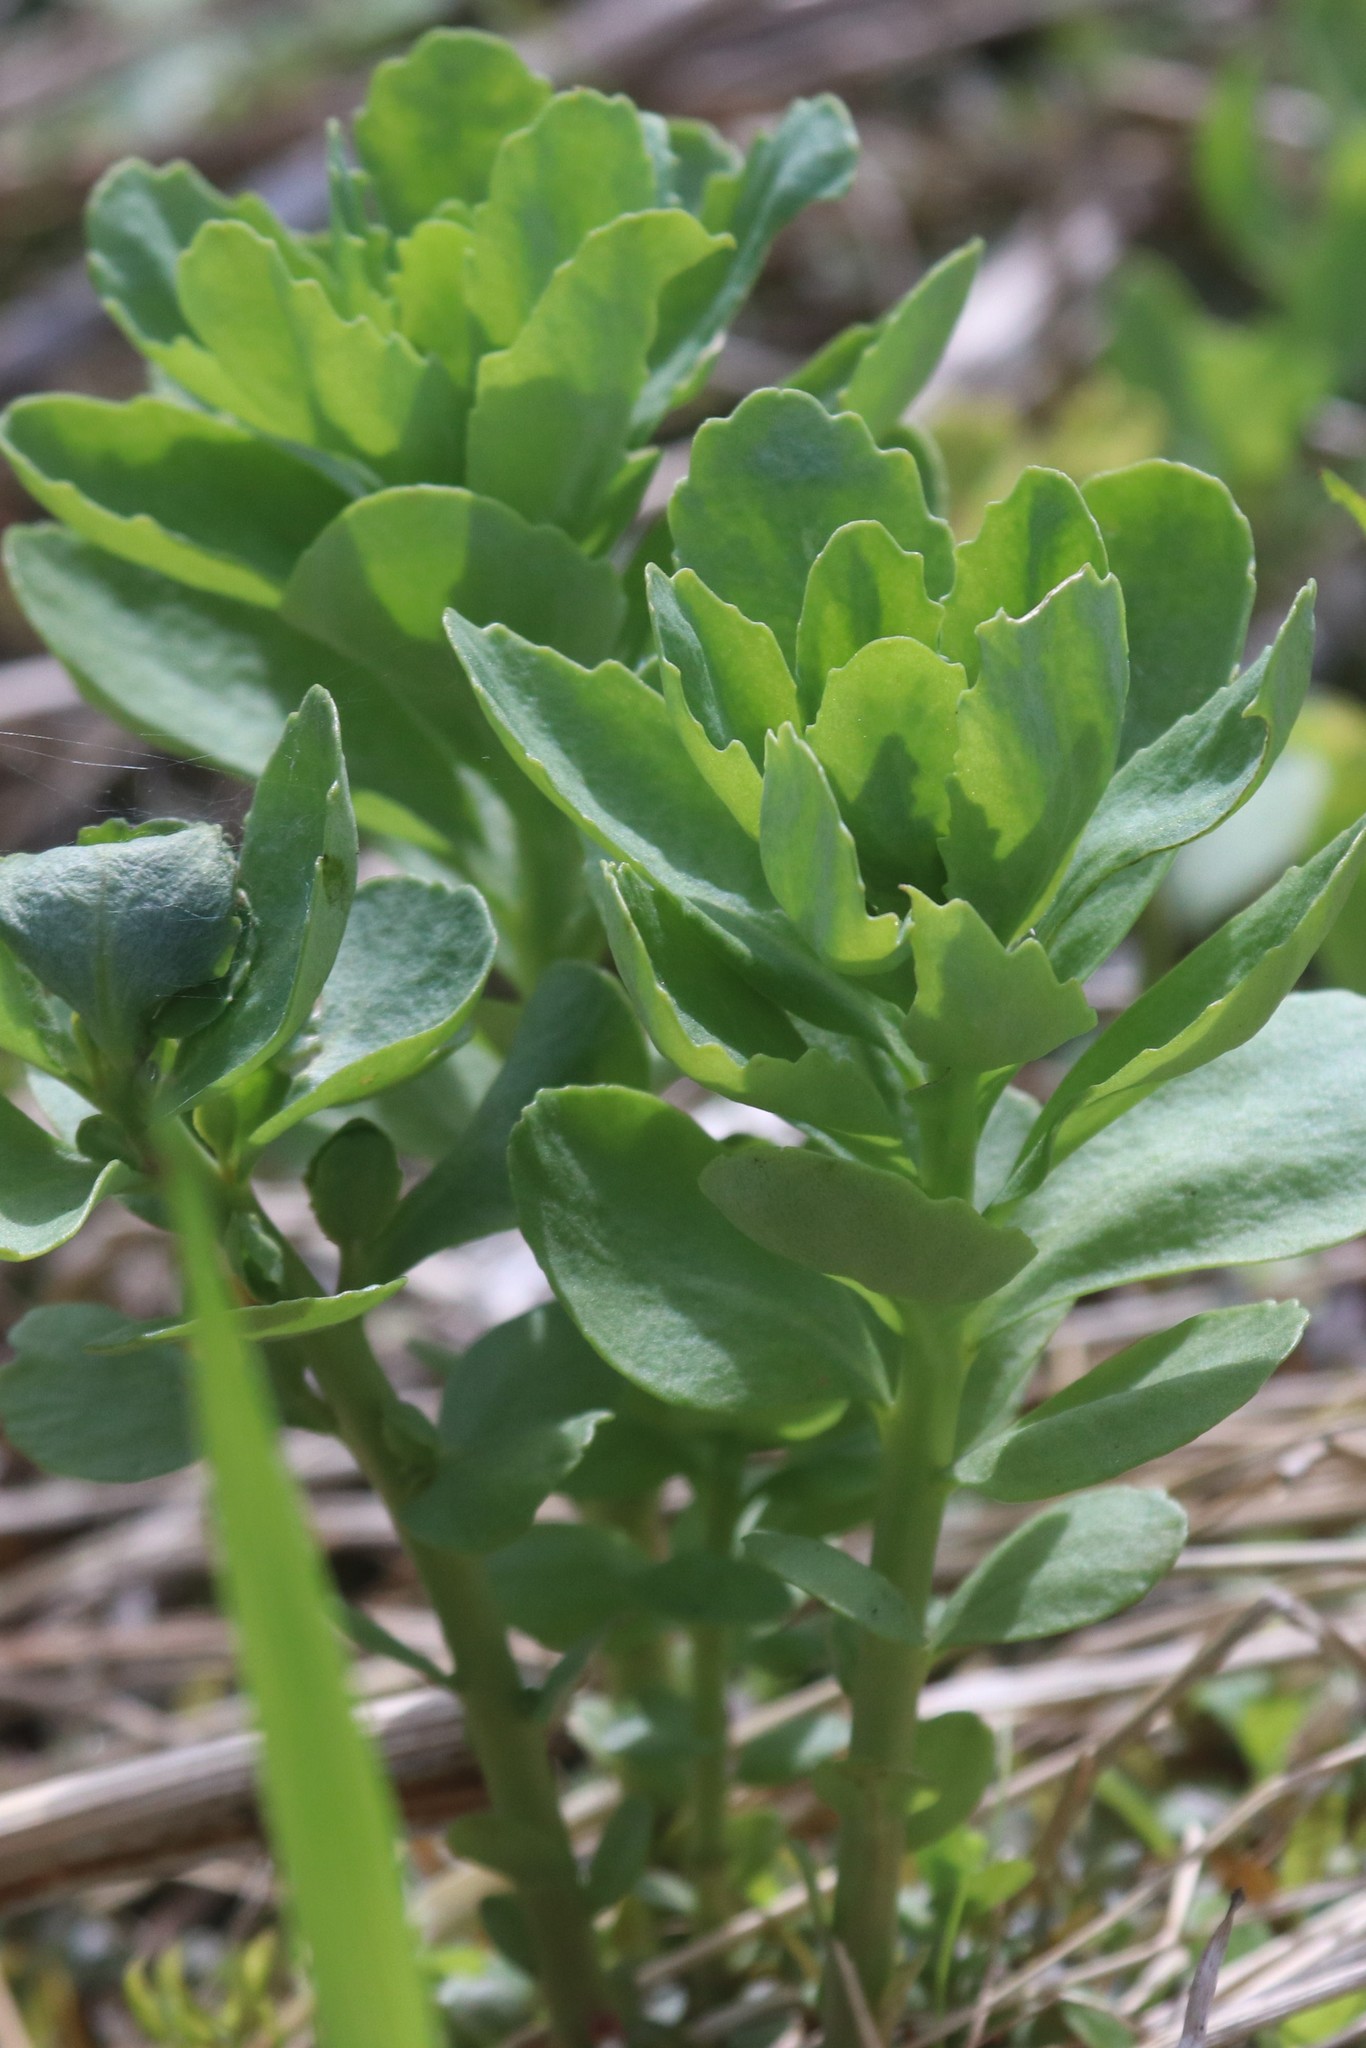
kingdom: Plantae
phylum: Tracheophyta
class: Magnoliopsida
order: Saxifragales
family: Crassulaceae
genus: Hylotelephium
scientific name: Hylotelephium telephium
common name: Live-forever
